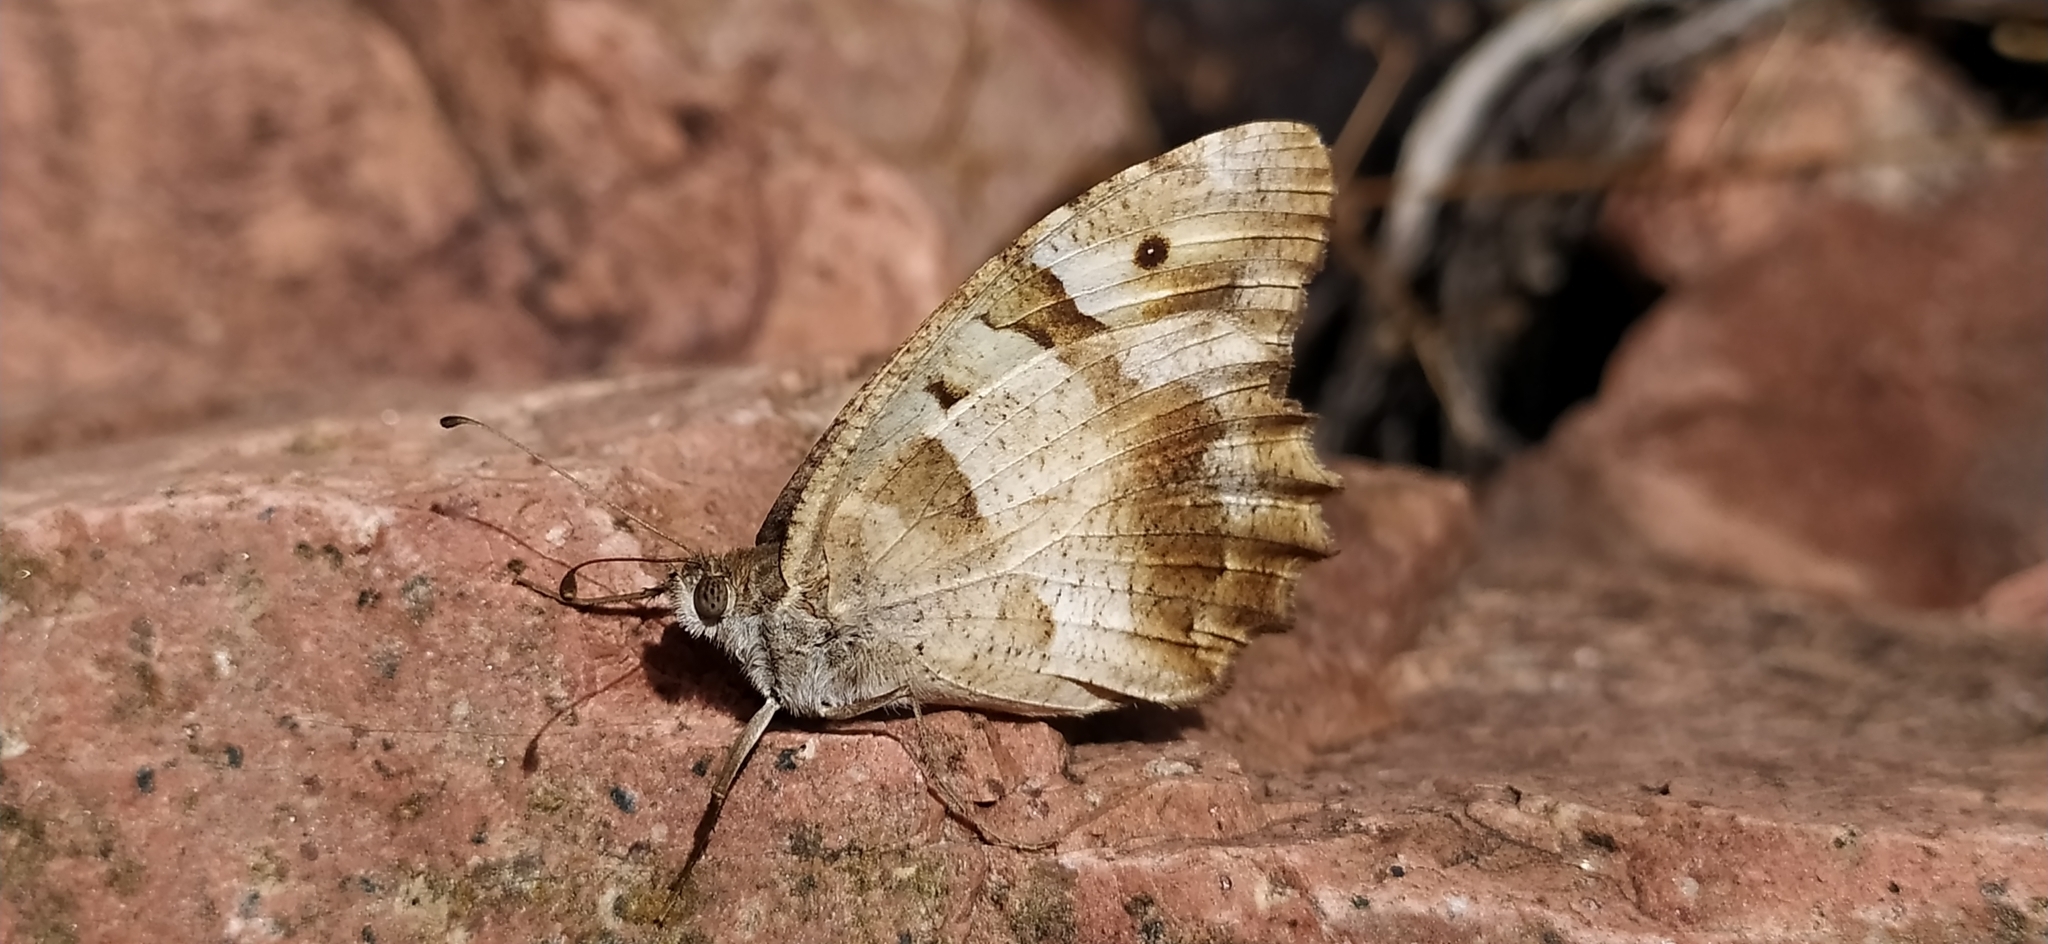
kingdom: Animalia
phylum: Arthropoda
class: Insecta
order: Lepidoptera
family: Nymphalidae
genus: Satyrus
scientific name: Satyrus briseis
